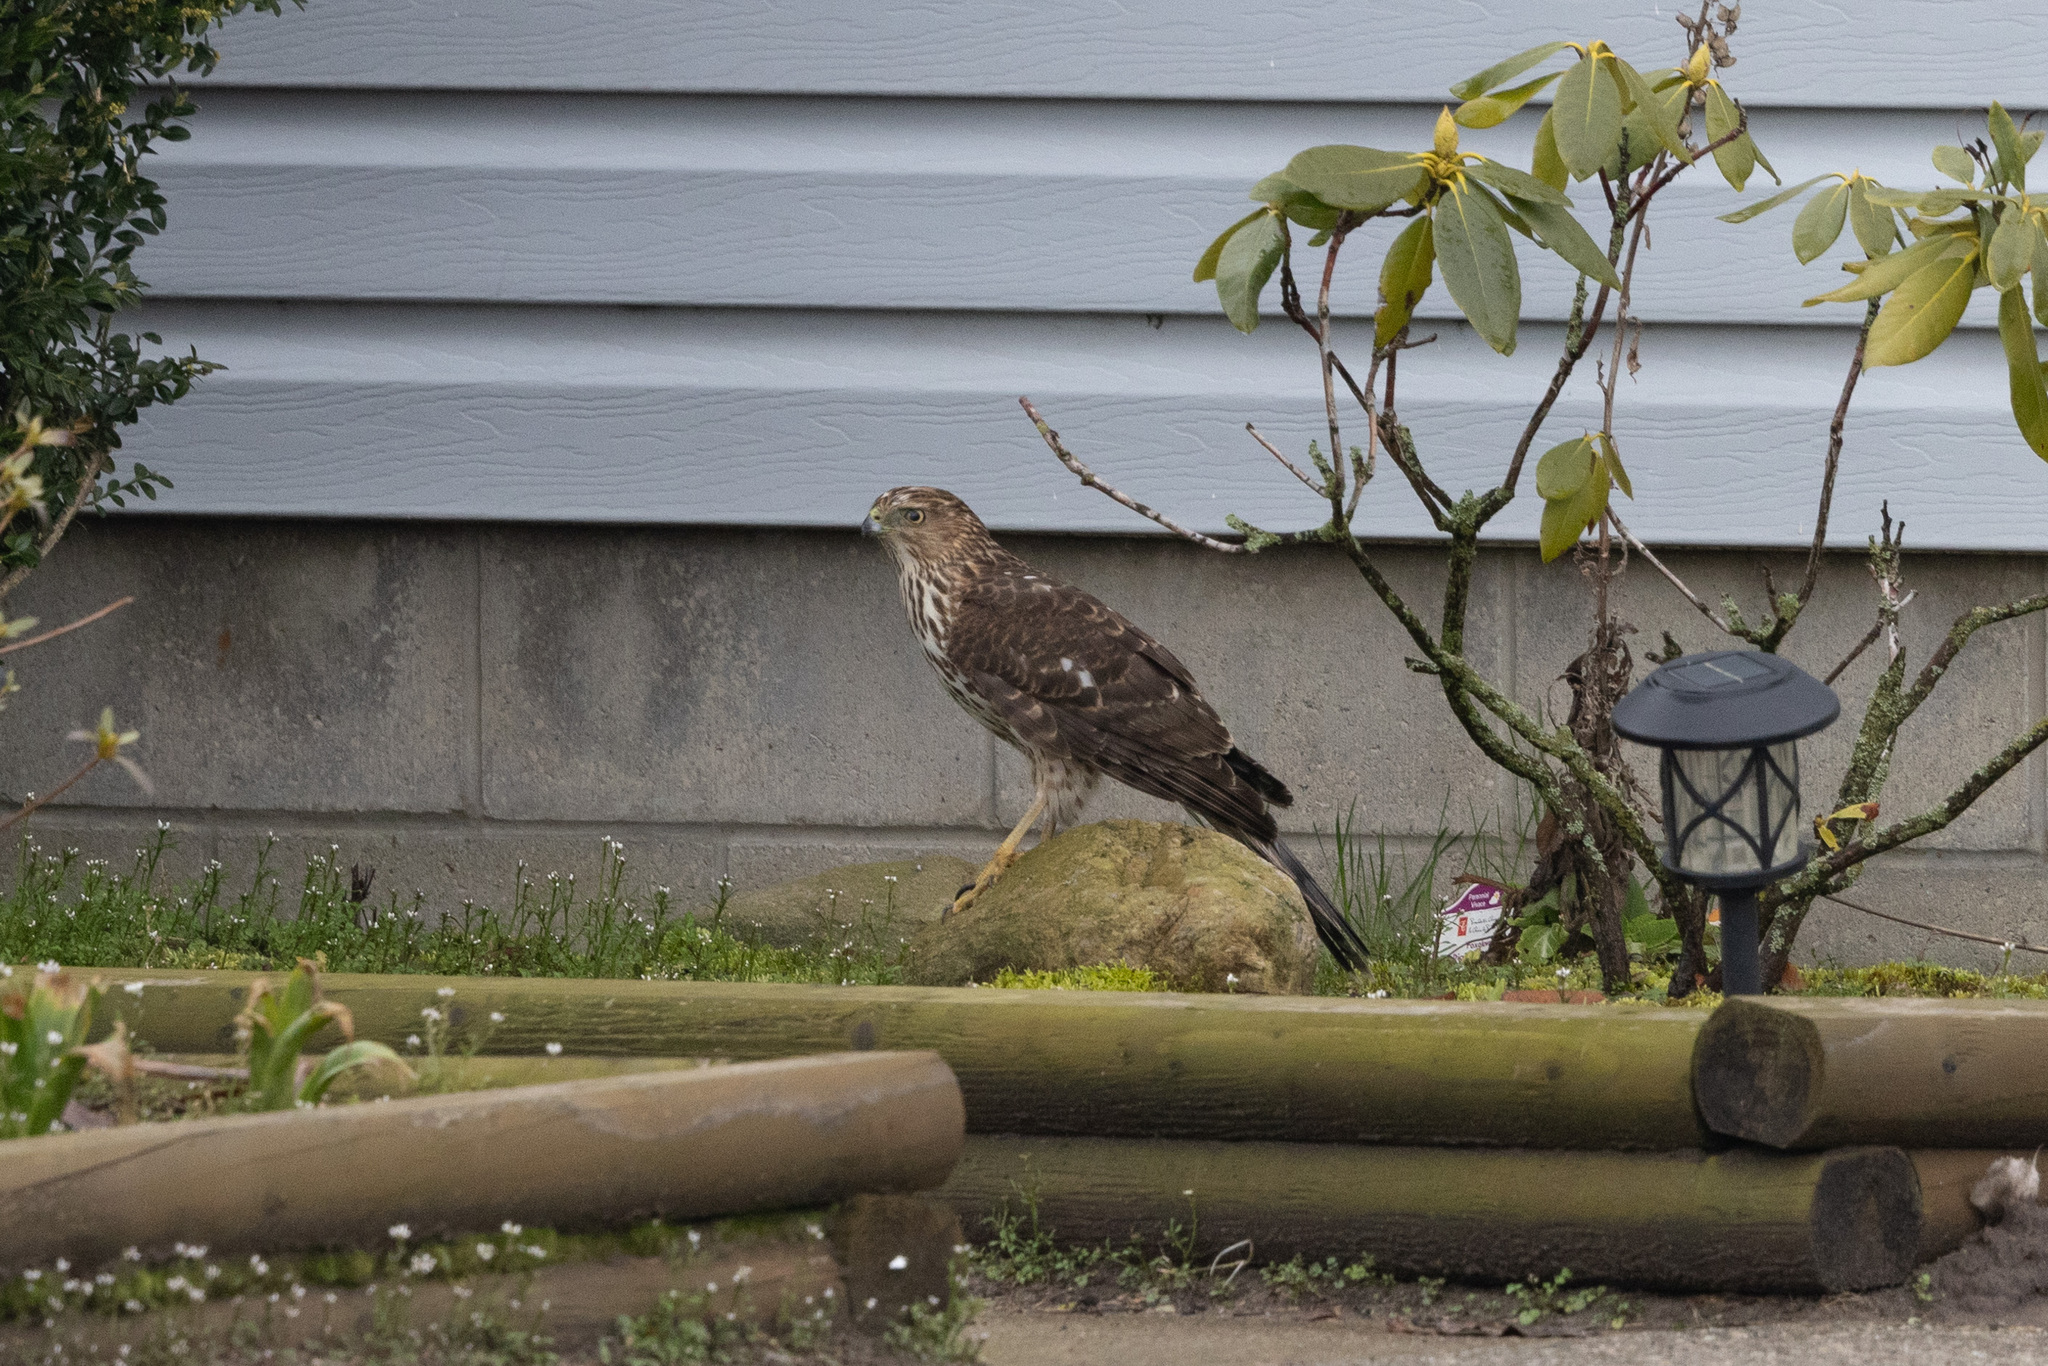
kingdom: Animalia
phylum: Chordata
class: Aves
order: Accipitriformes
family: Accipitridae
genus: Accipiter
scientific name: Accipiter cooperii
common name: Cooper's hawk
